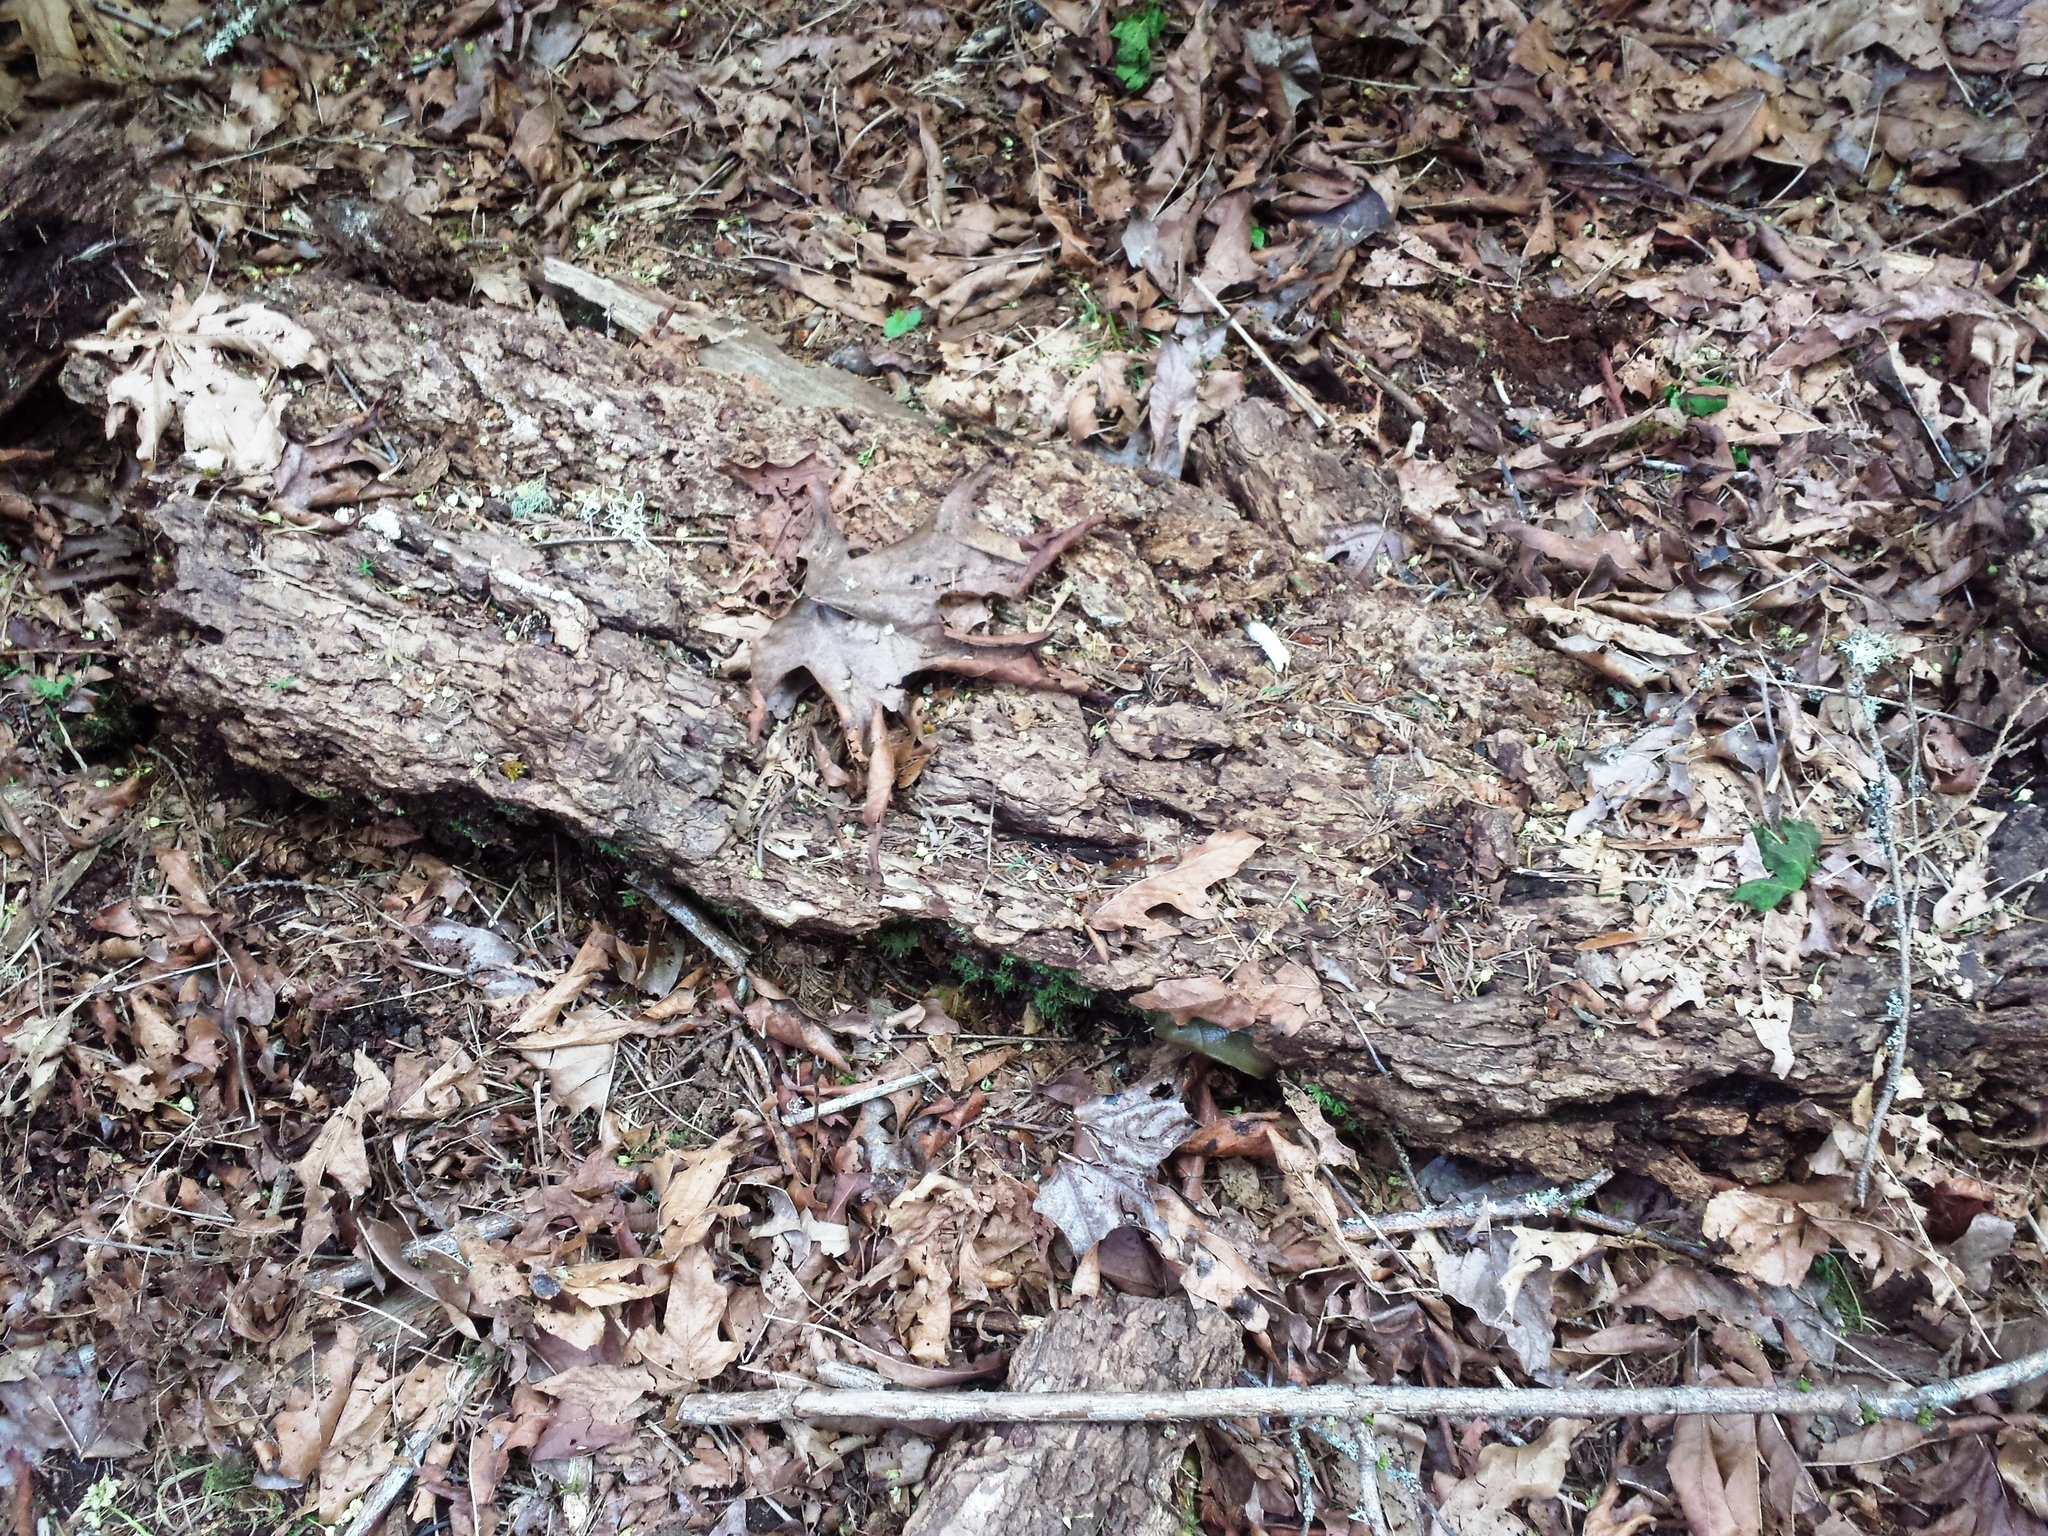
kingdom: Animalia
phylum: Mollusca
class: Gastropoda
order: Stylommatophora
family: Ariolimacidae
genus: Ariolimax
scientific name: Ariolimax columbianus
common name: Pacific banana slug
